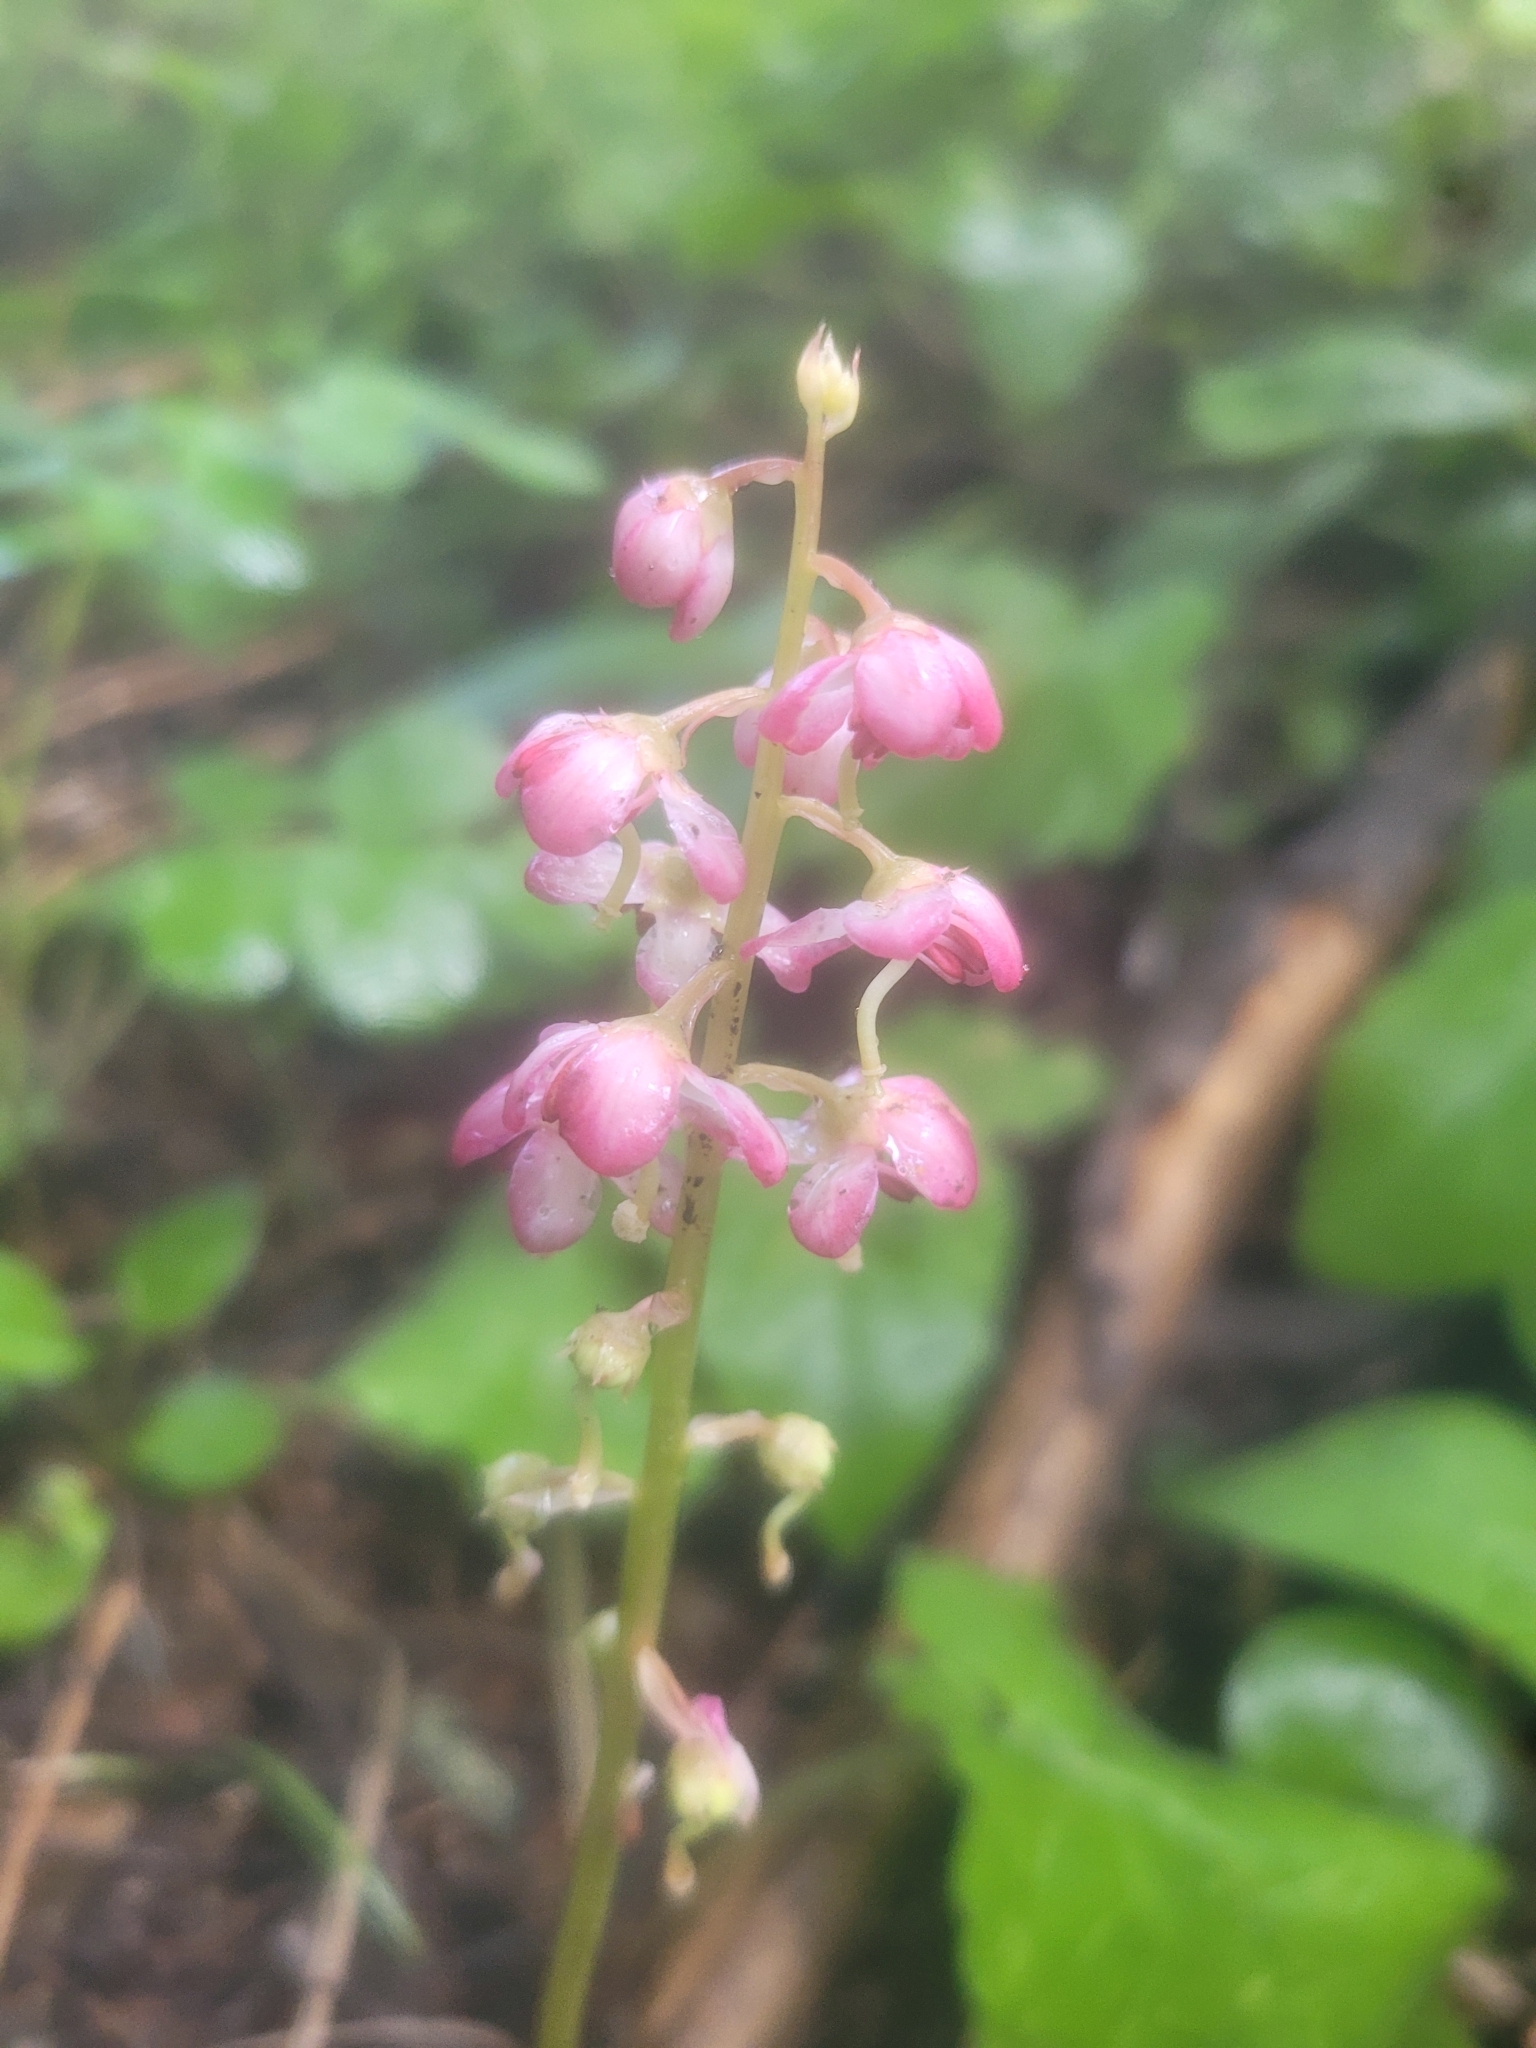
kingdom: Plantae
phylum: Tracheophyta
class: Magnoliopsida
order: Ericales
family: Ericaceae
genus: Pyrola
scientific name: Pyrola asarifolia
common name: Bog wintergreen
